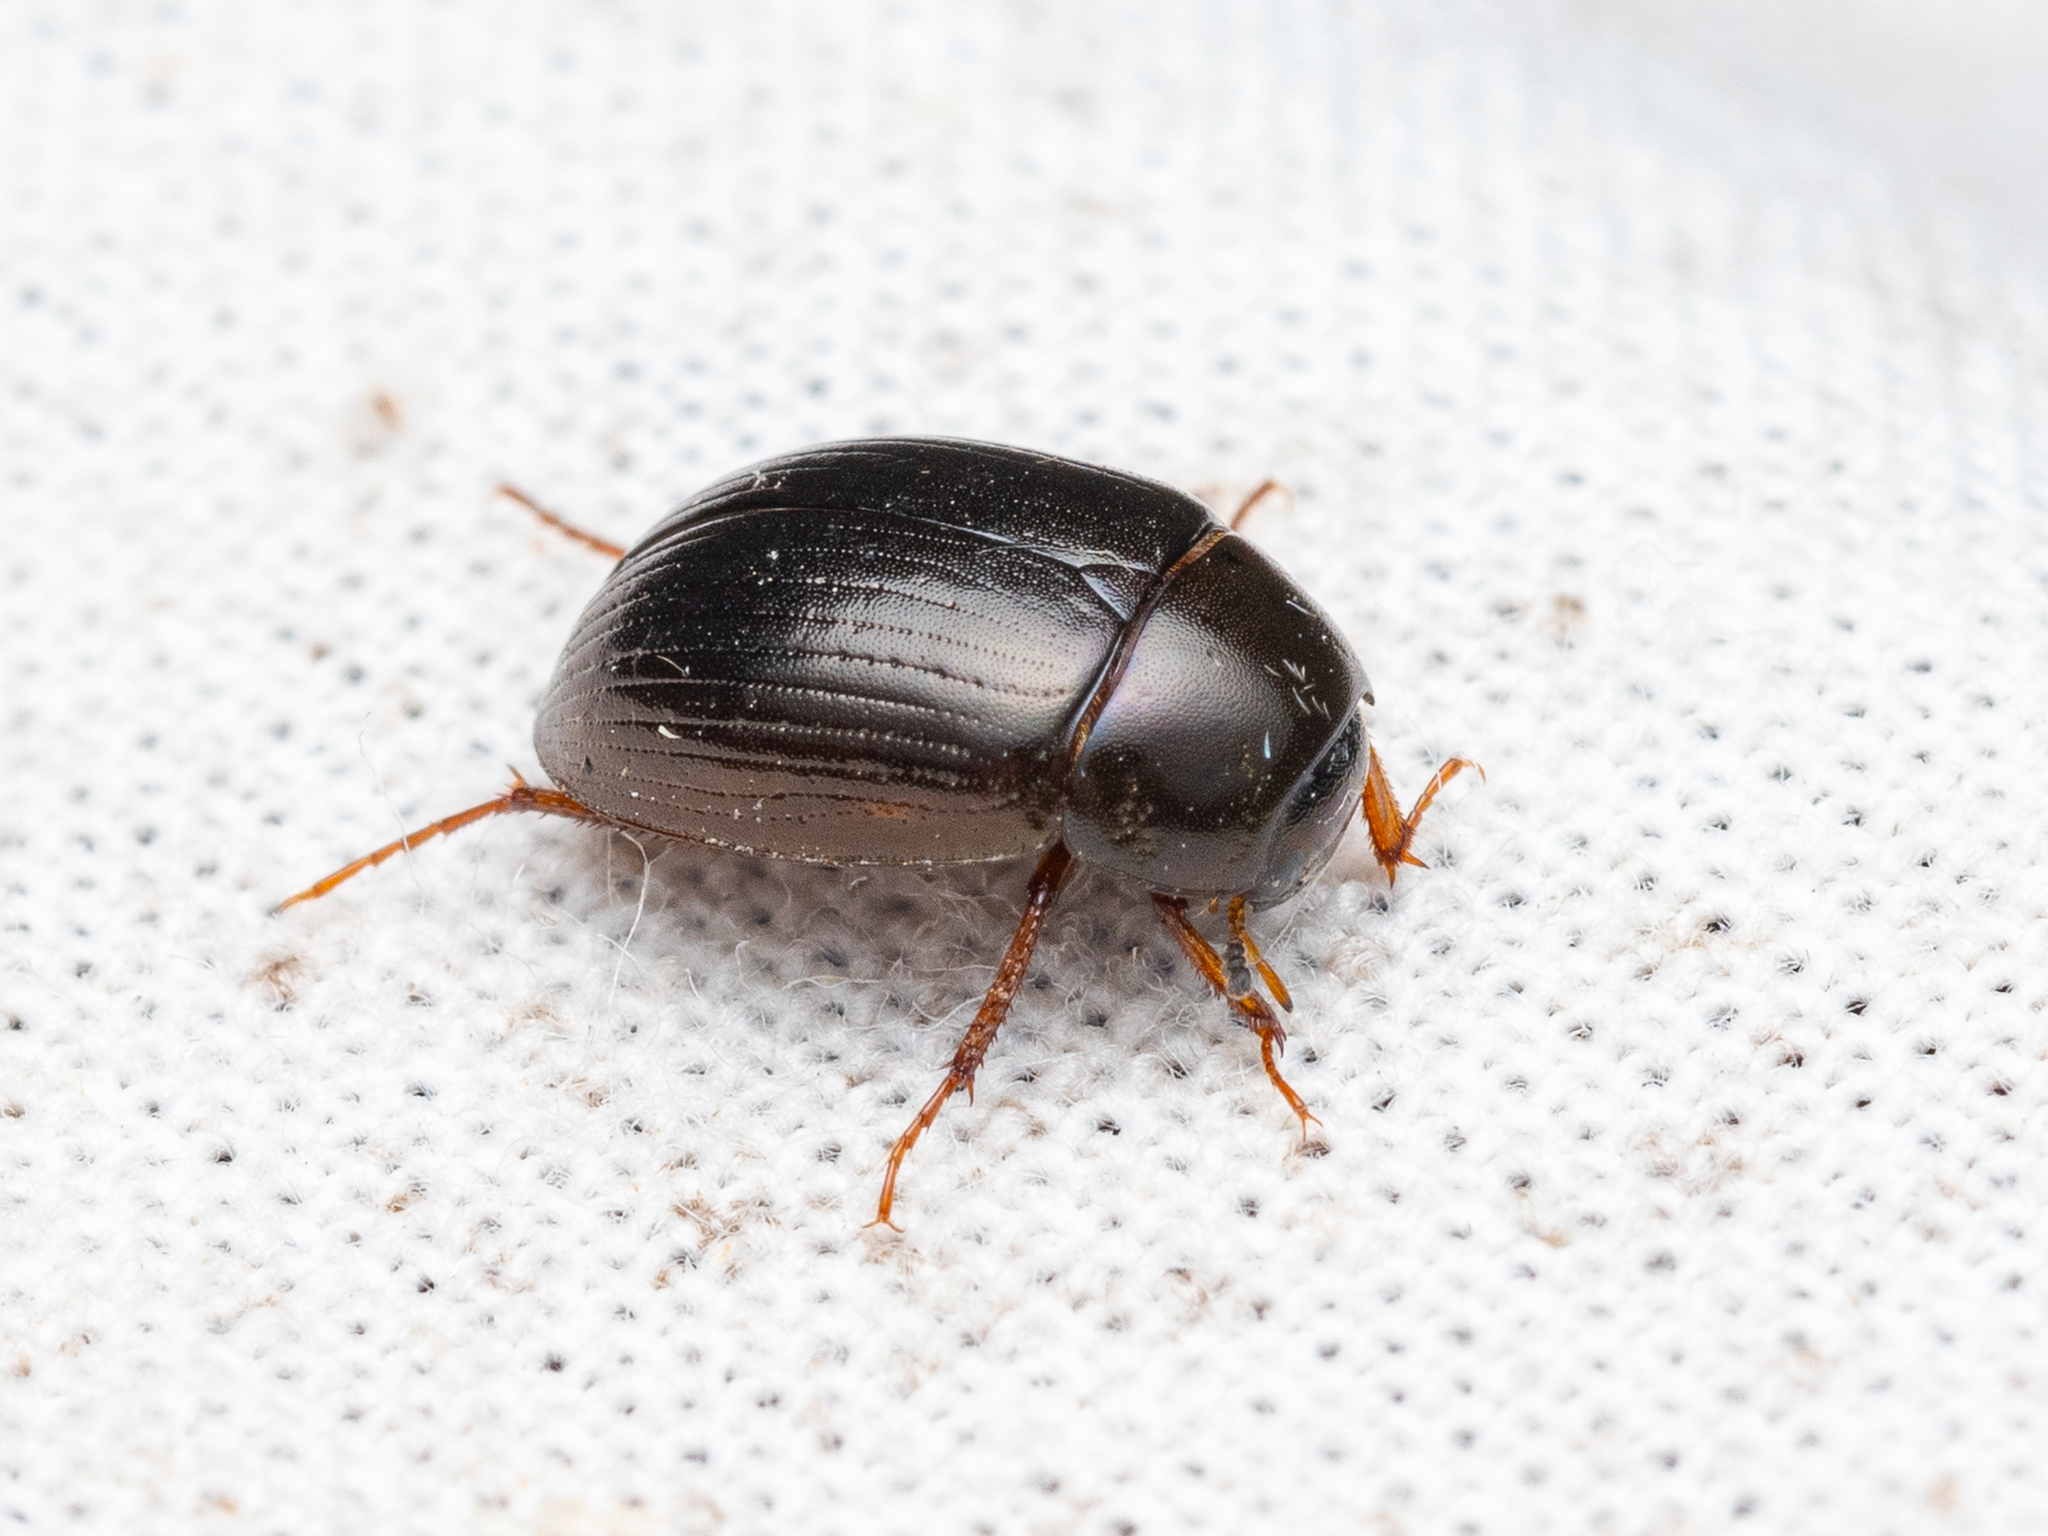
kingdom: Animalia
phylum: Arthropoda
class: Insecta
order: Coleoptera
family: Hydrophilidae
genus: Hydrobius
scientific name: Hydrobius
